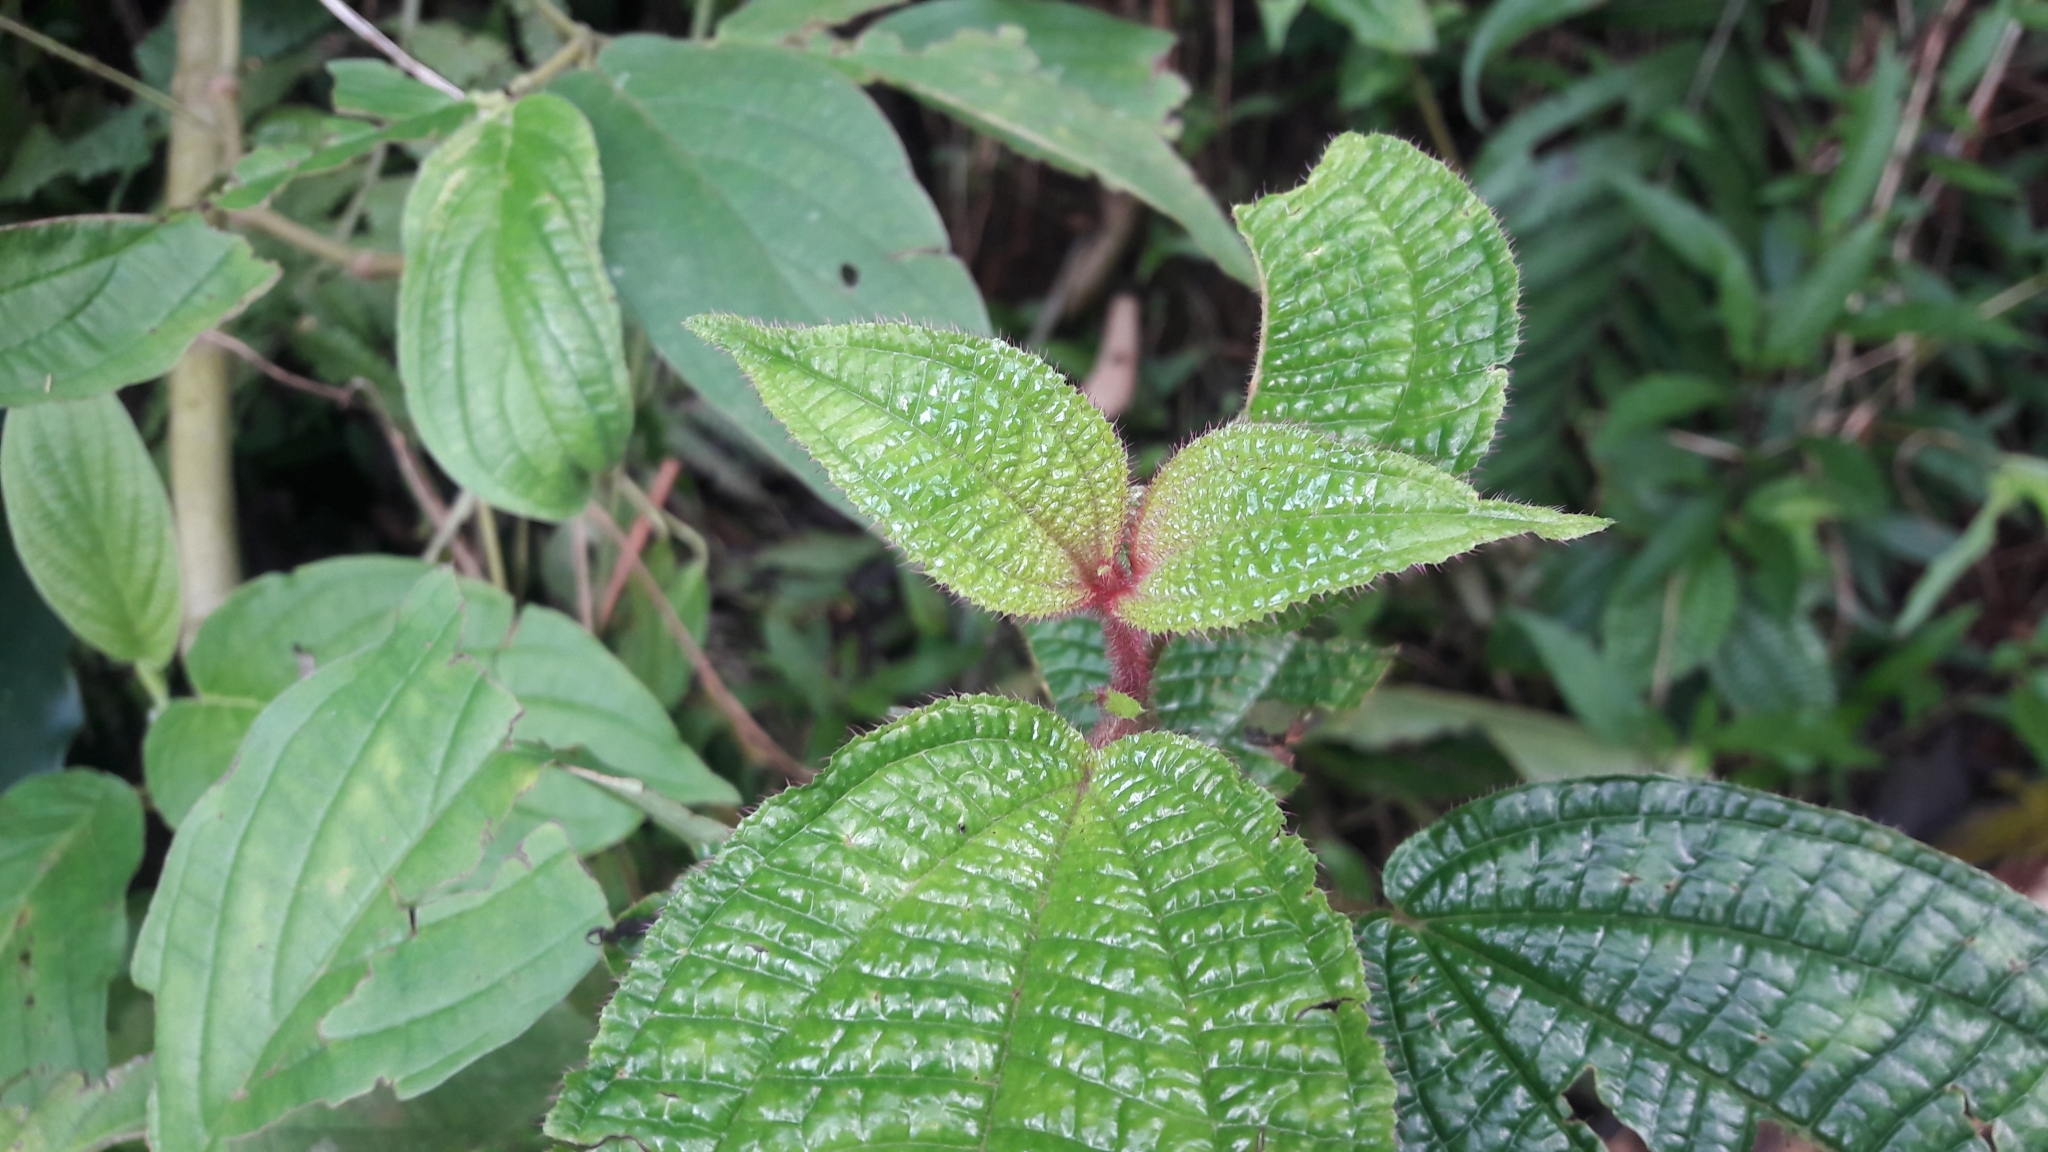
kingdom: Plantae
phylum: Tracheophyta
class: Magnoliopsida
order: Myrtales
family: Melastomataceae
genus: Miconia
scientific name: Miconia crenata
